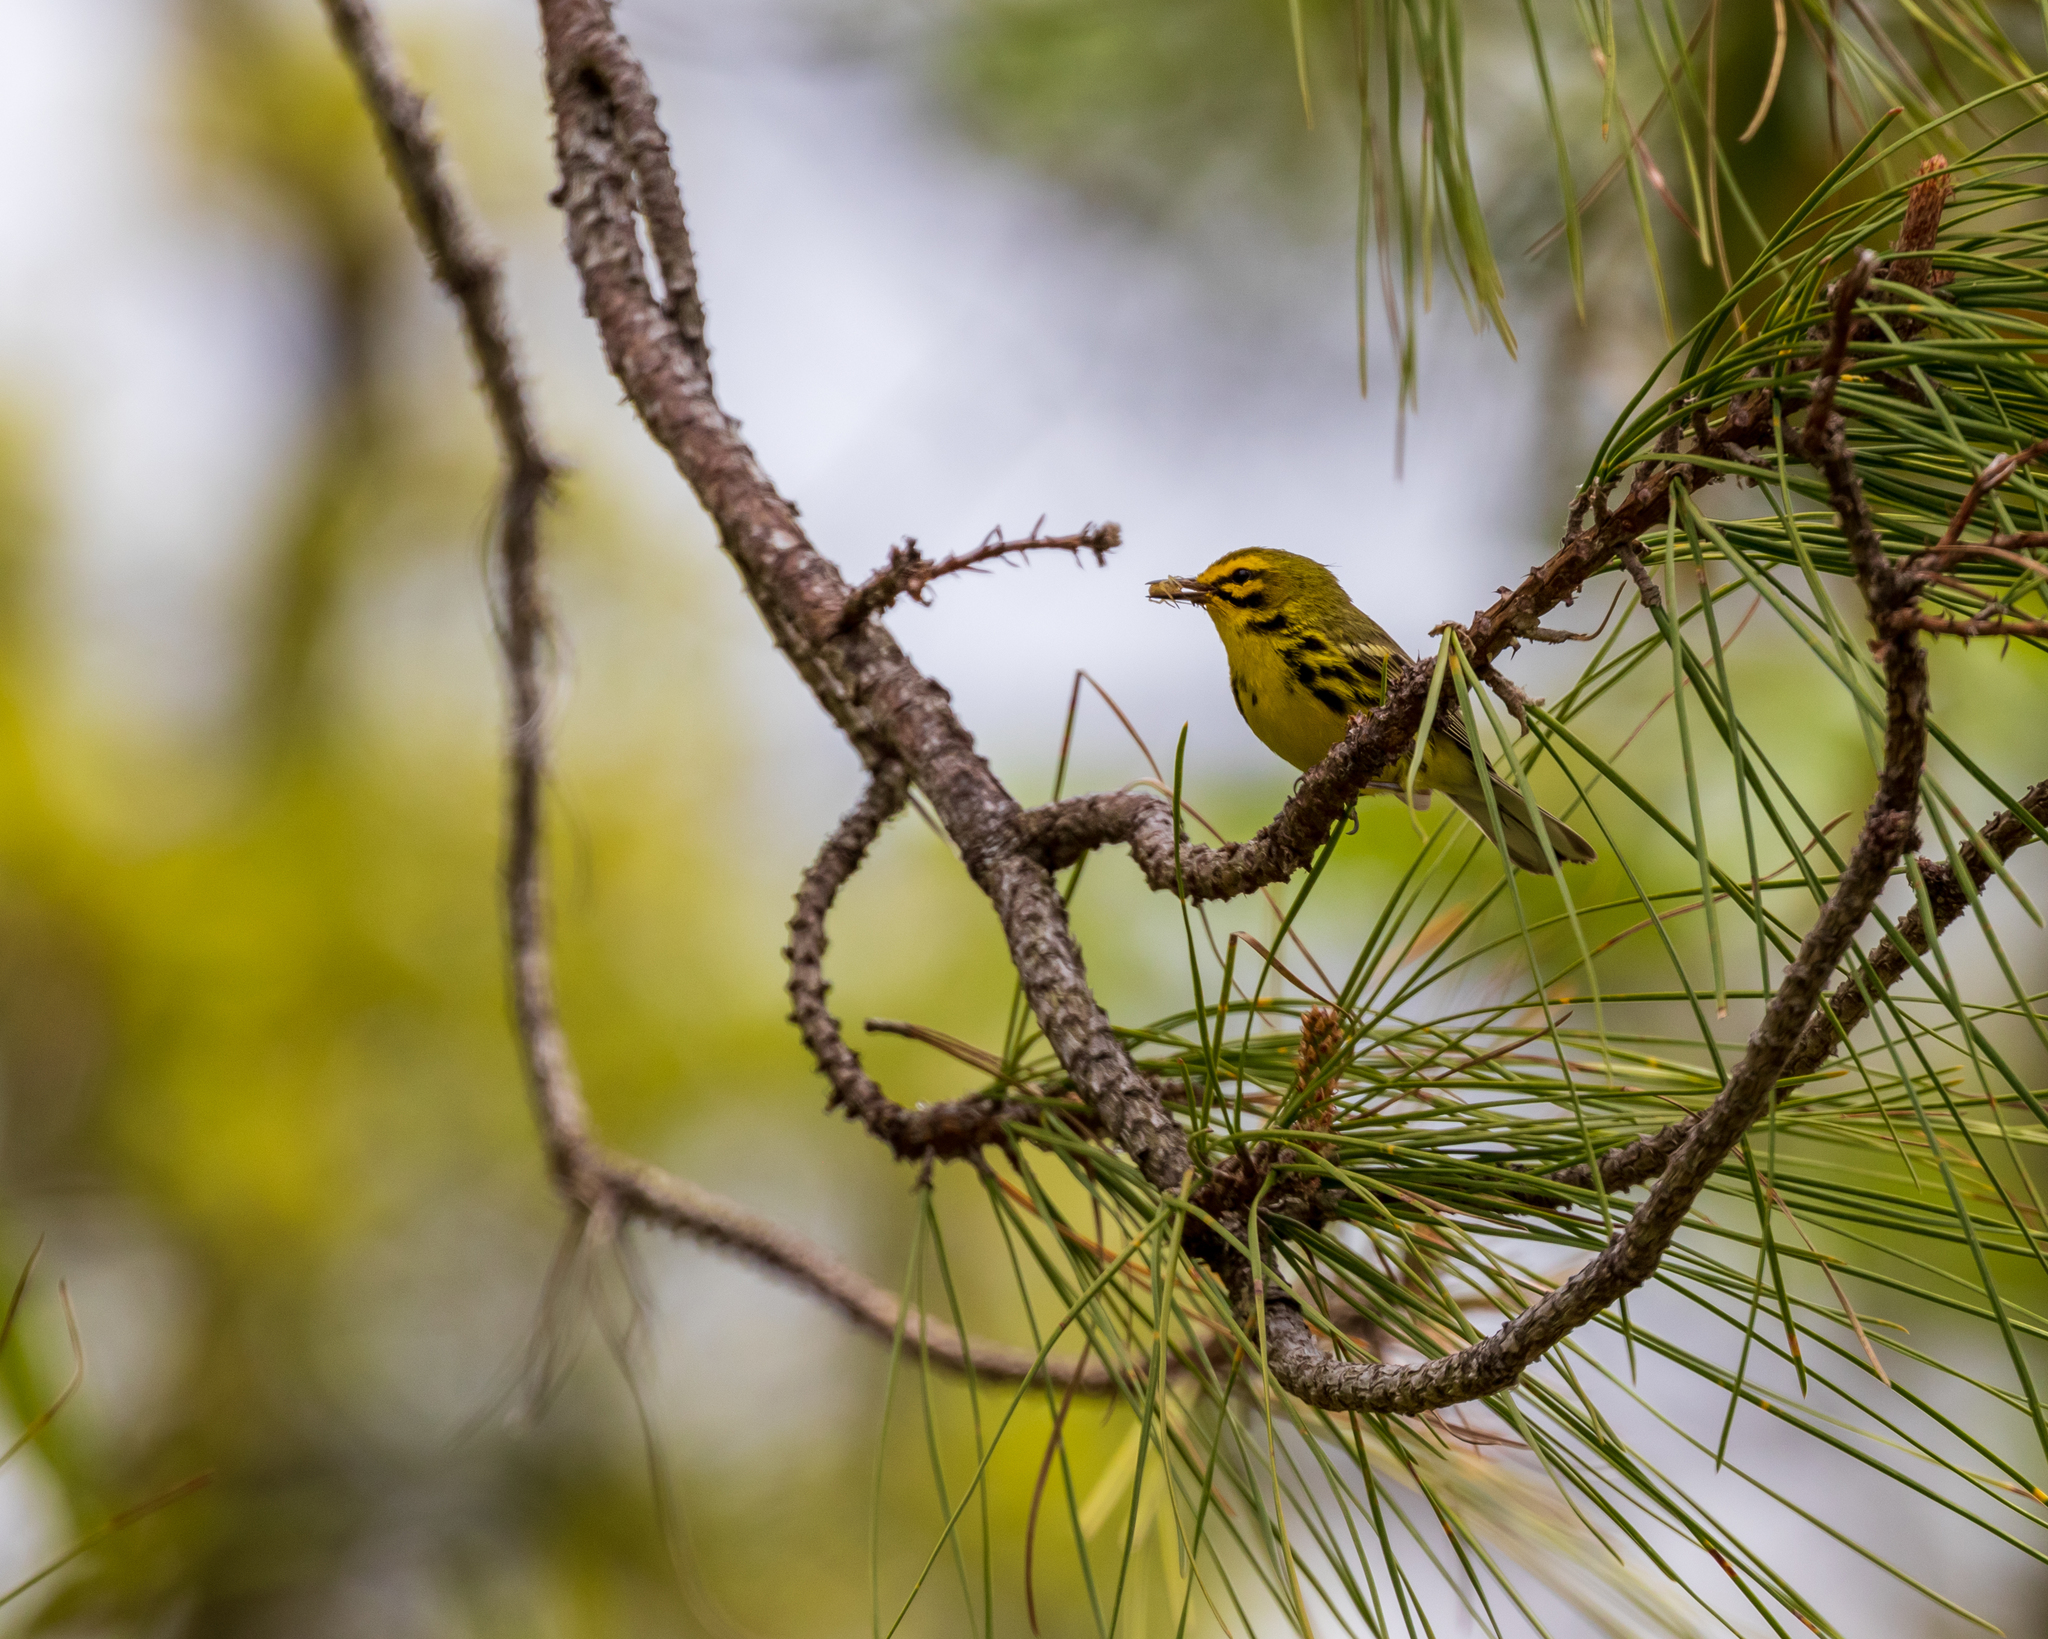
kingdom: Animalia
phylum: Chordata
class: Aves
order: Passeriformes
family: Parulidae
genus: Setophaga
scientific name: Setophaga discolor
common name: Prairie warbler
